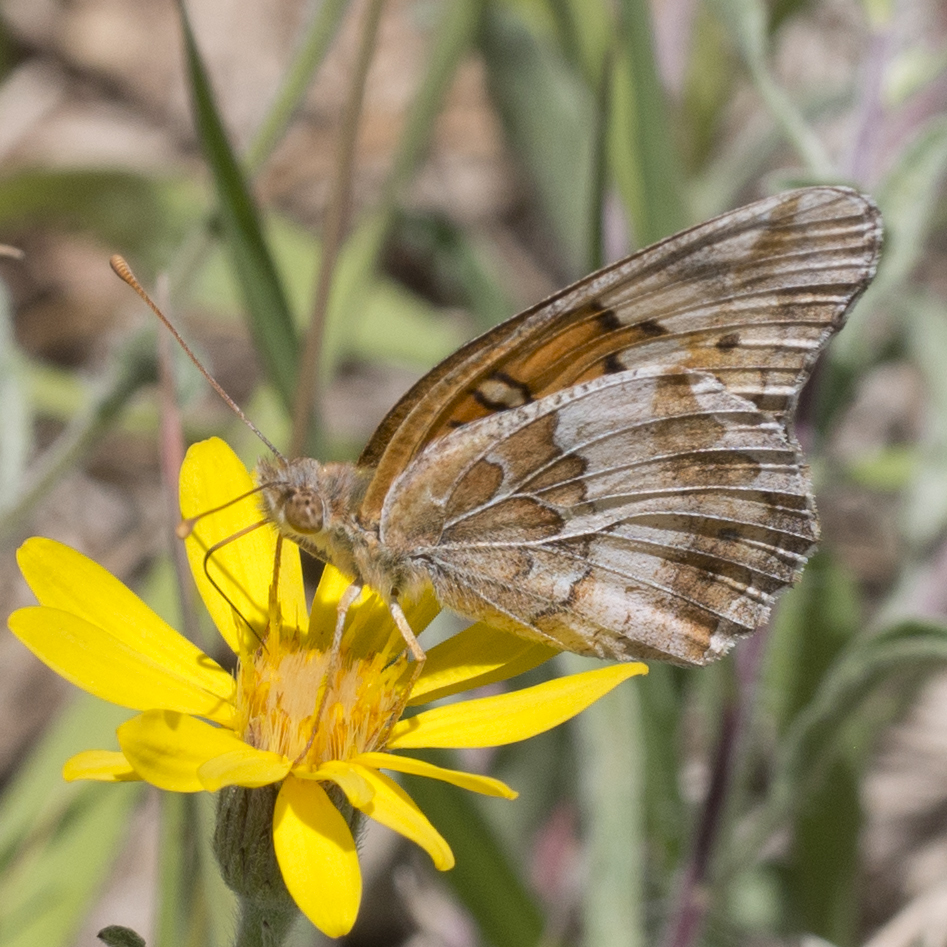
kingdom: Animalia
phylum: Arthropoda
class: Insecta
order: Lepidoptera
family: Nymphalidae
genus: Euptoieta
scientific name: Euptoieta claudia
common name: Variegated fritillary
